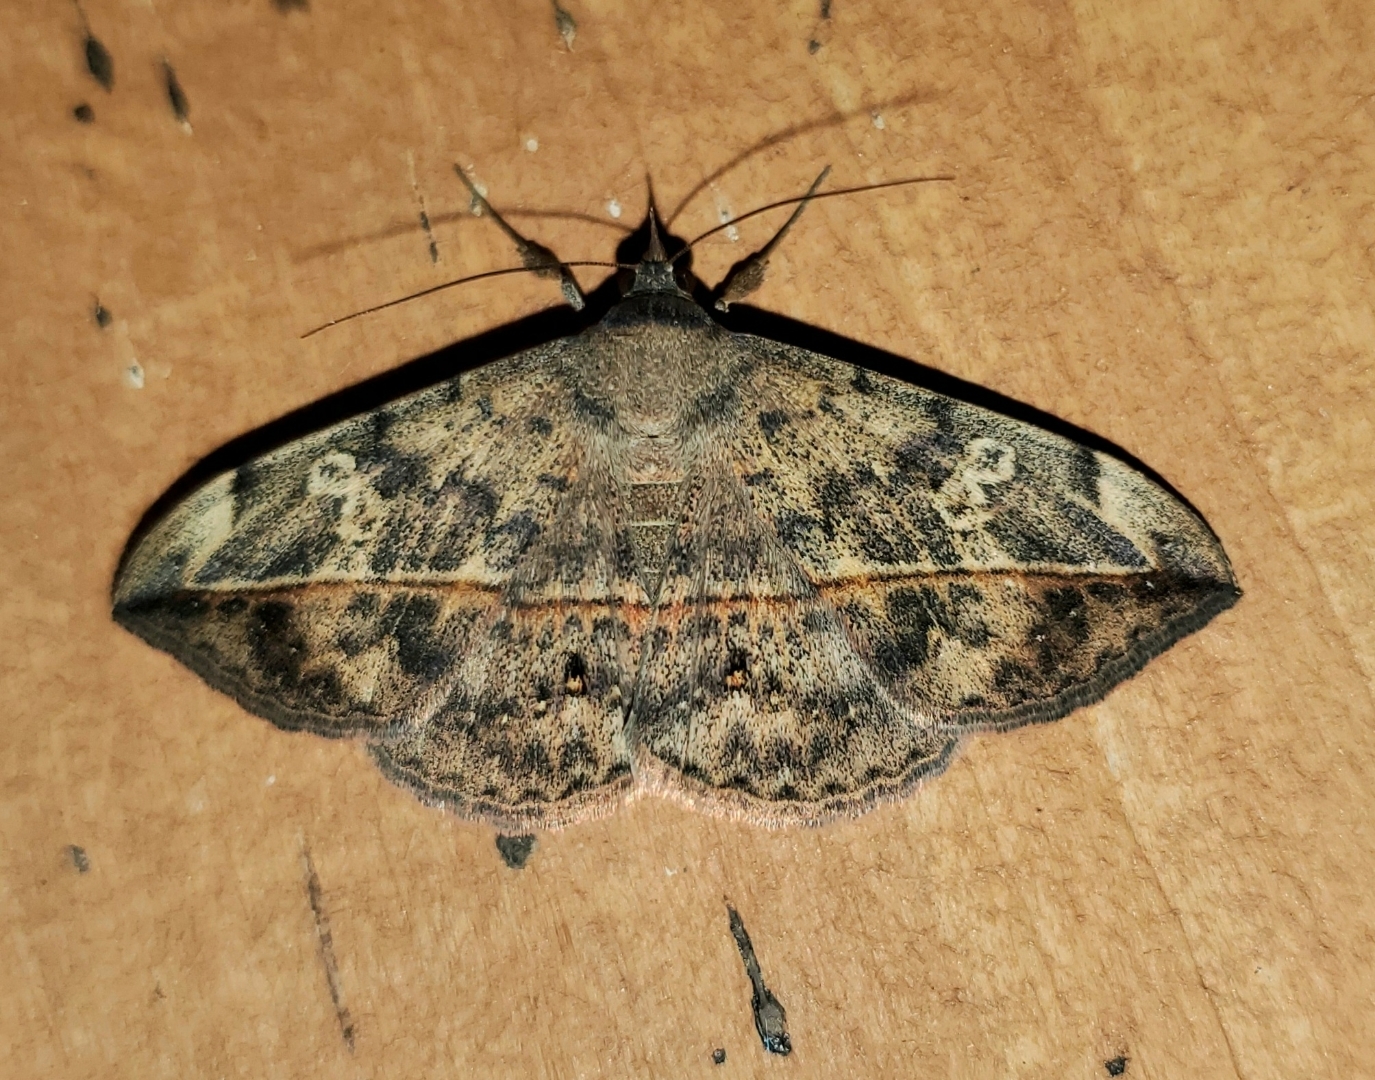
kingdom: Animalia
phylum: Arthropoda
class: Insecta
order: Lepidoptera
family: Erebidae
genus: Anticarsia
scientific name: Anticarsia gemmatalis
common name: Cutworm moth
